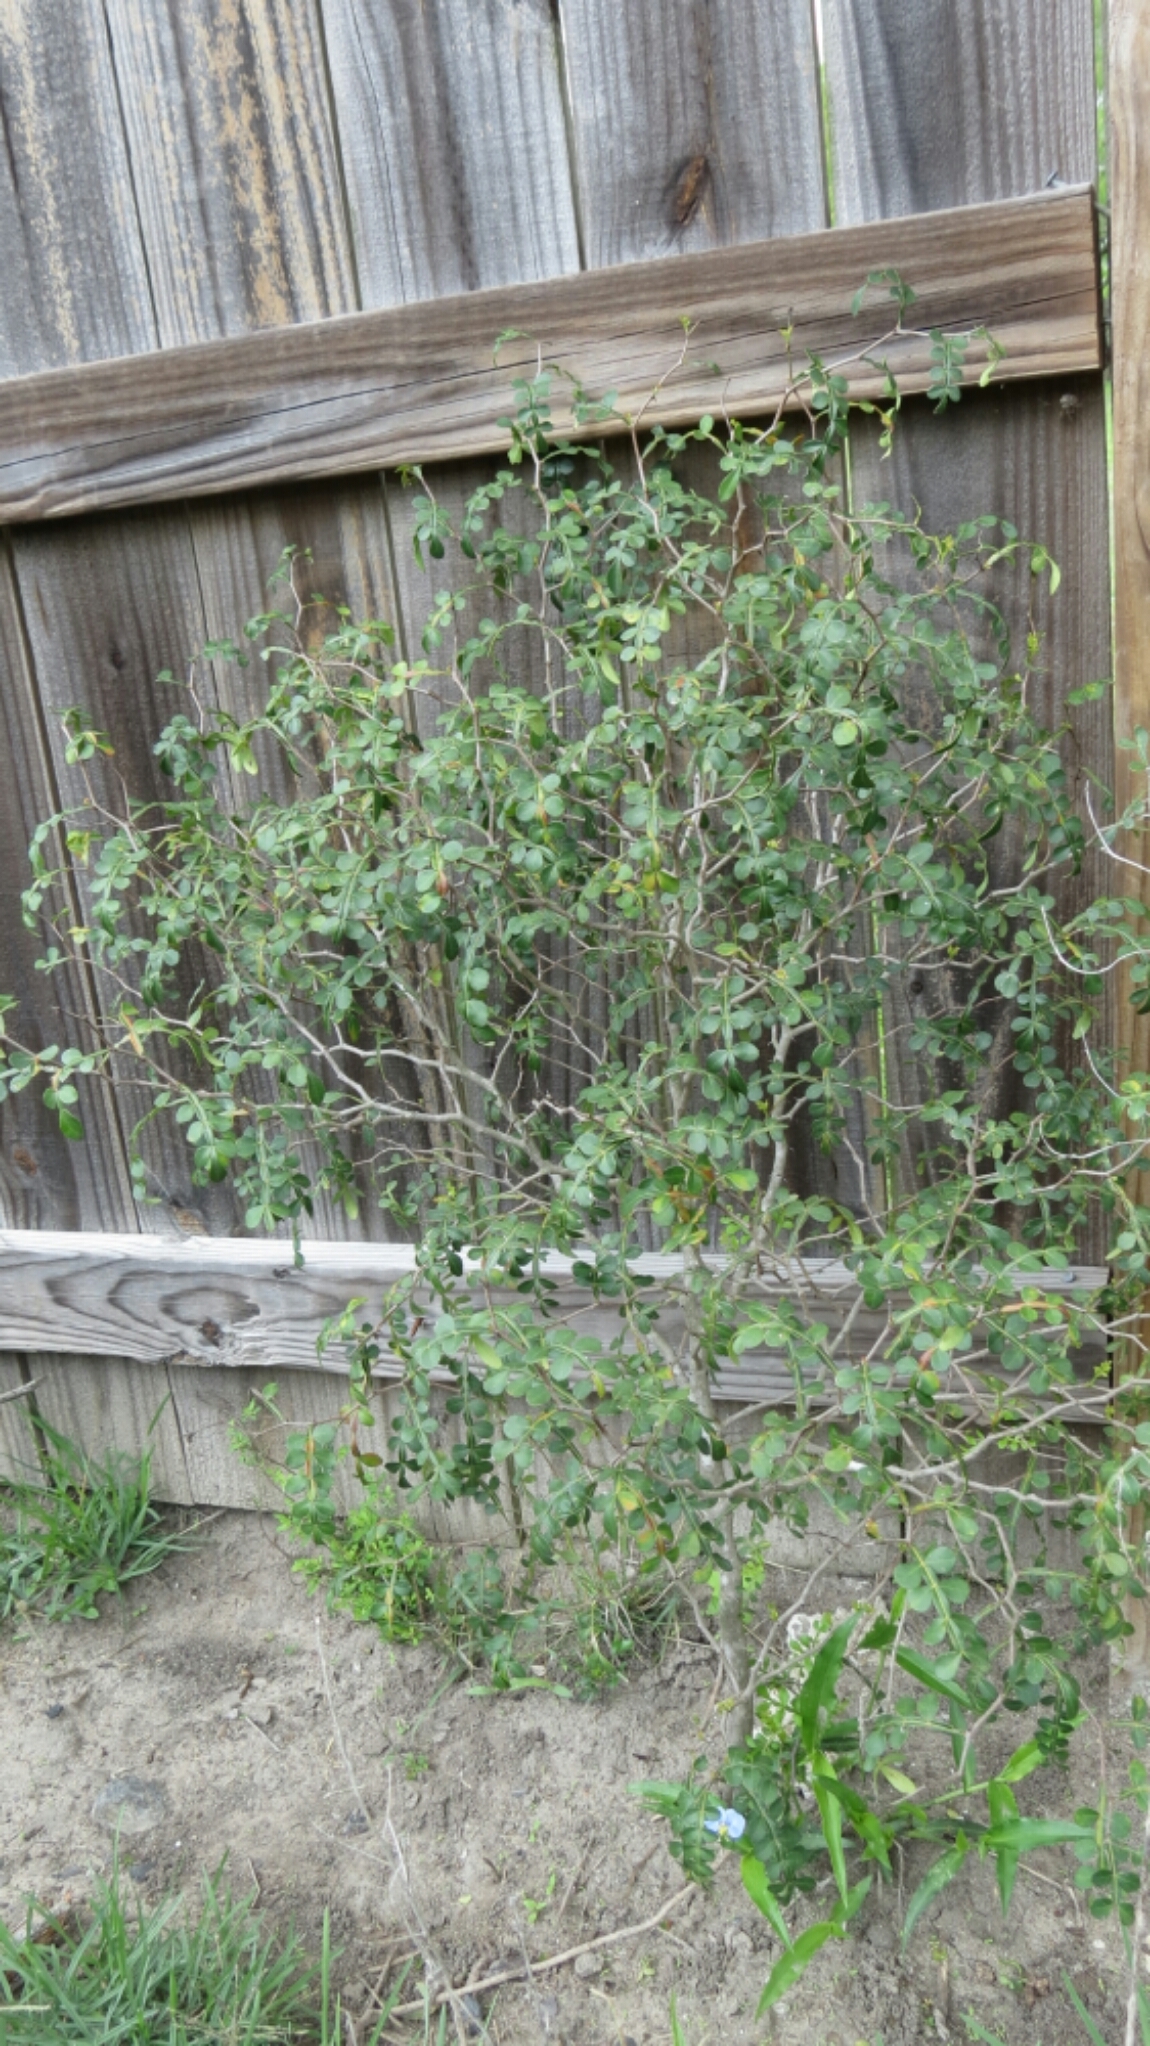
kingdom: Plantae
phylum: Tracheophyta
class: Magnoliopsida
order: Sapindales
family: Rutaceae
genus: Zanthoxylum
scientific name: Zanthoxylum fagara
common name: Lime prickly-ash
